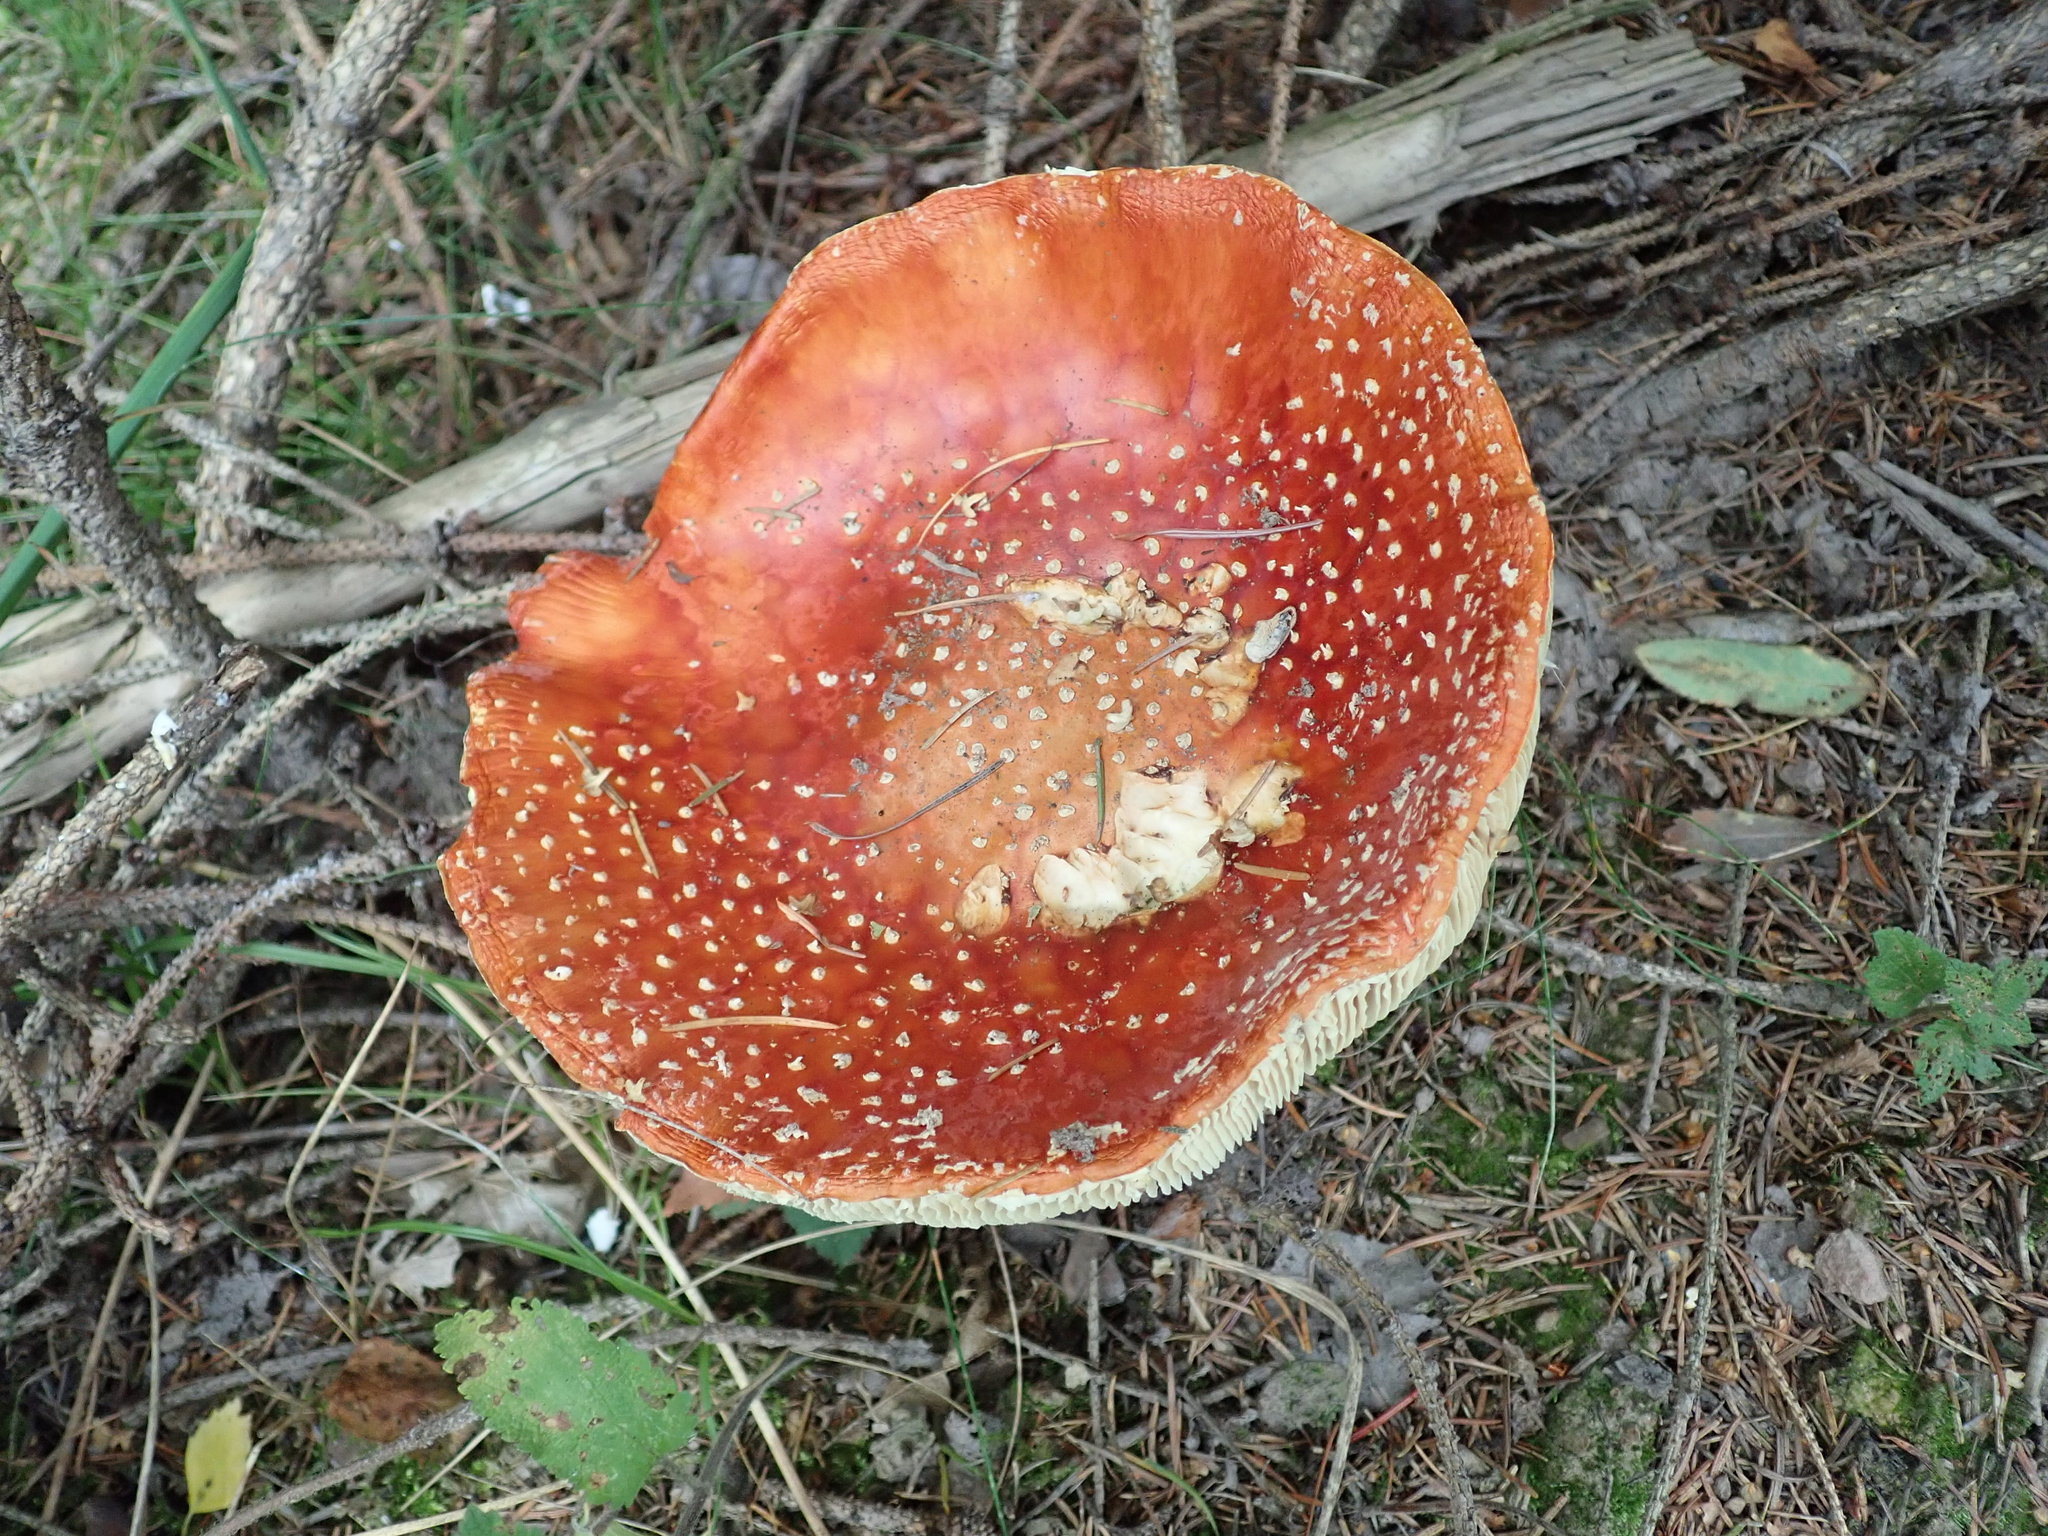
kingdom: Fungi
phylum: Basidiomycota
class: Agaricomycetes
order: Agaricales
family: Amanitaceae
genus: Amanita
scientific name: Amanita muscaria
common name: Fly agaric
